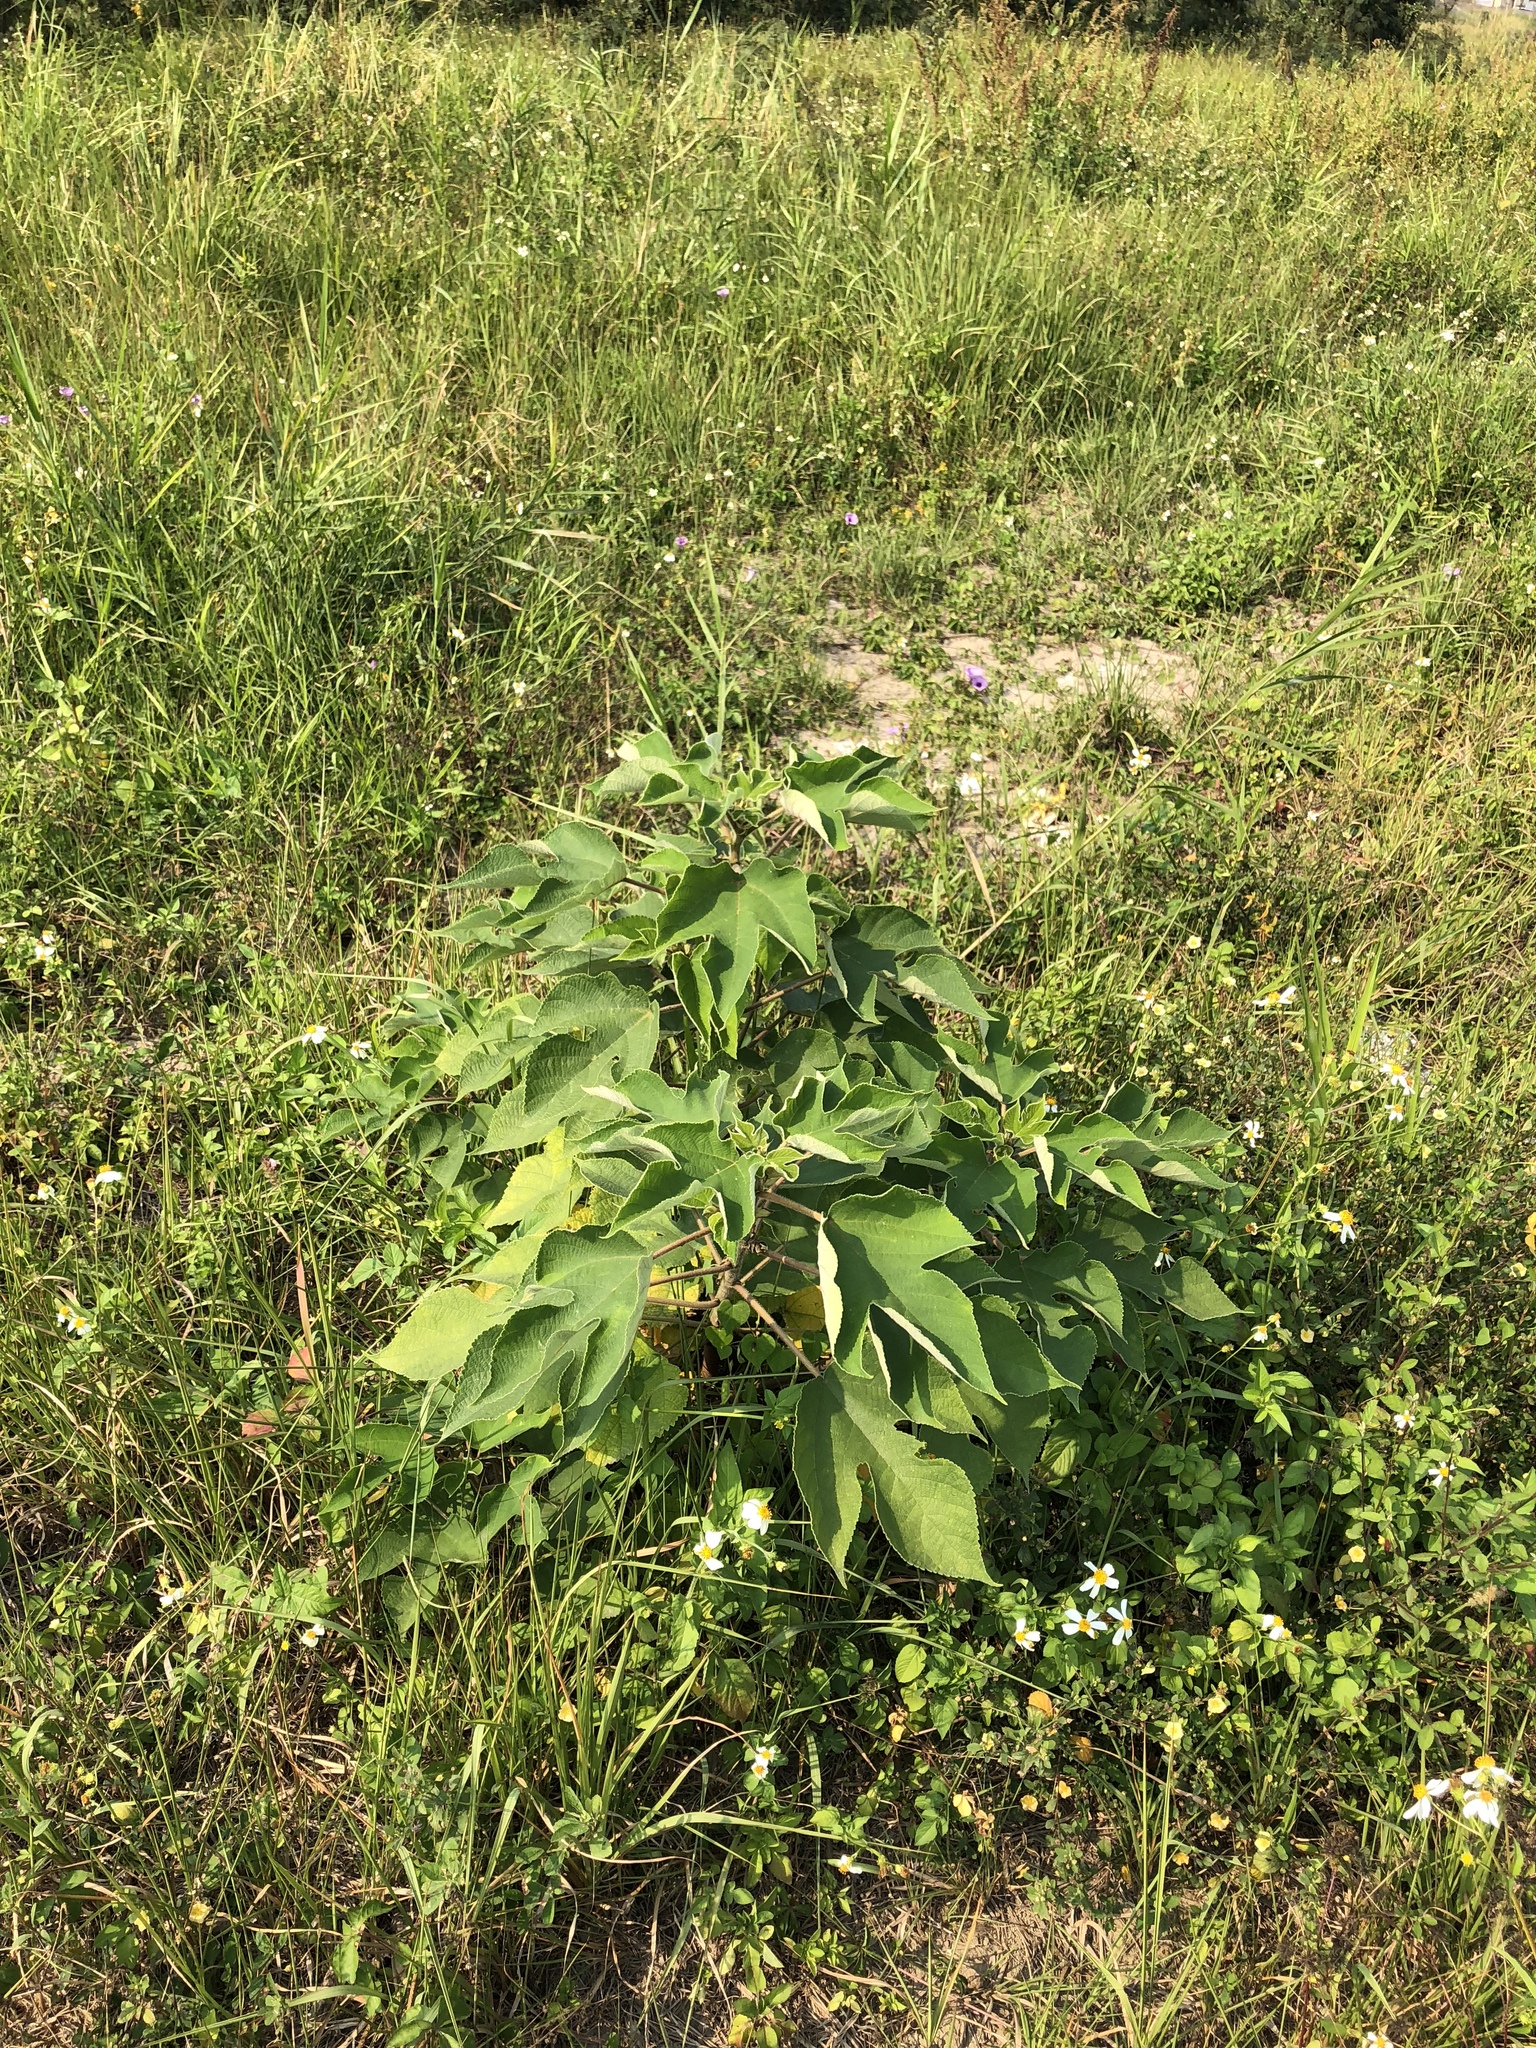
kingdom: Plantae
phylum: Tracheophyta
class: Magnoliopsida
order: Rosales
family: Moraceae
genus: Broussonetia
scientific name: Broussonetia papyrifera
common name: Paper mulberry
